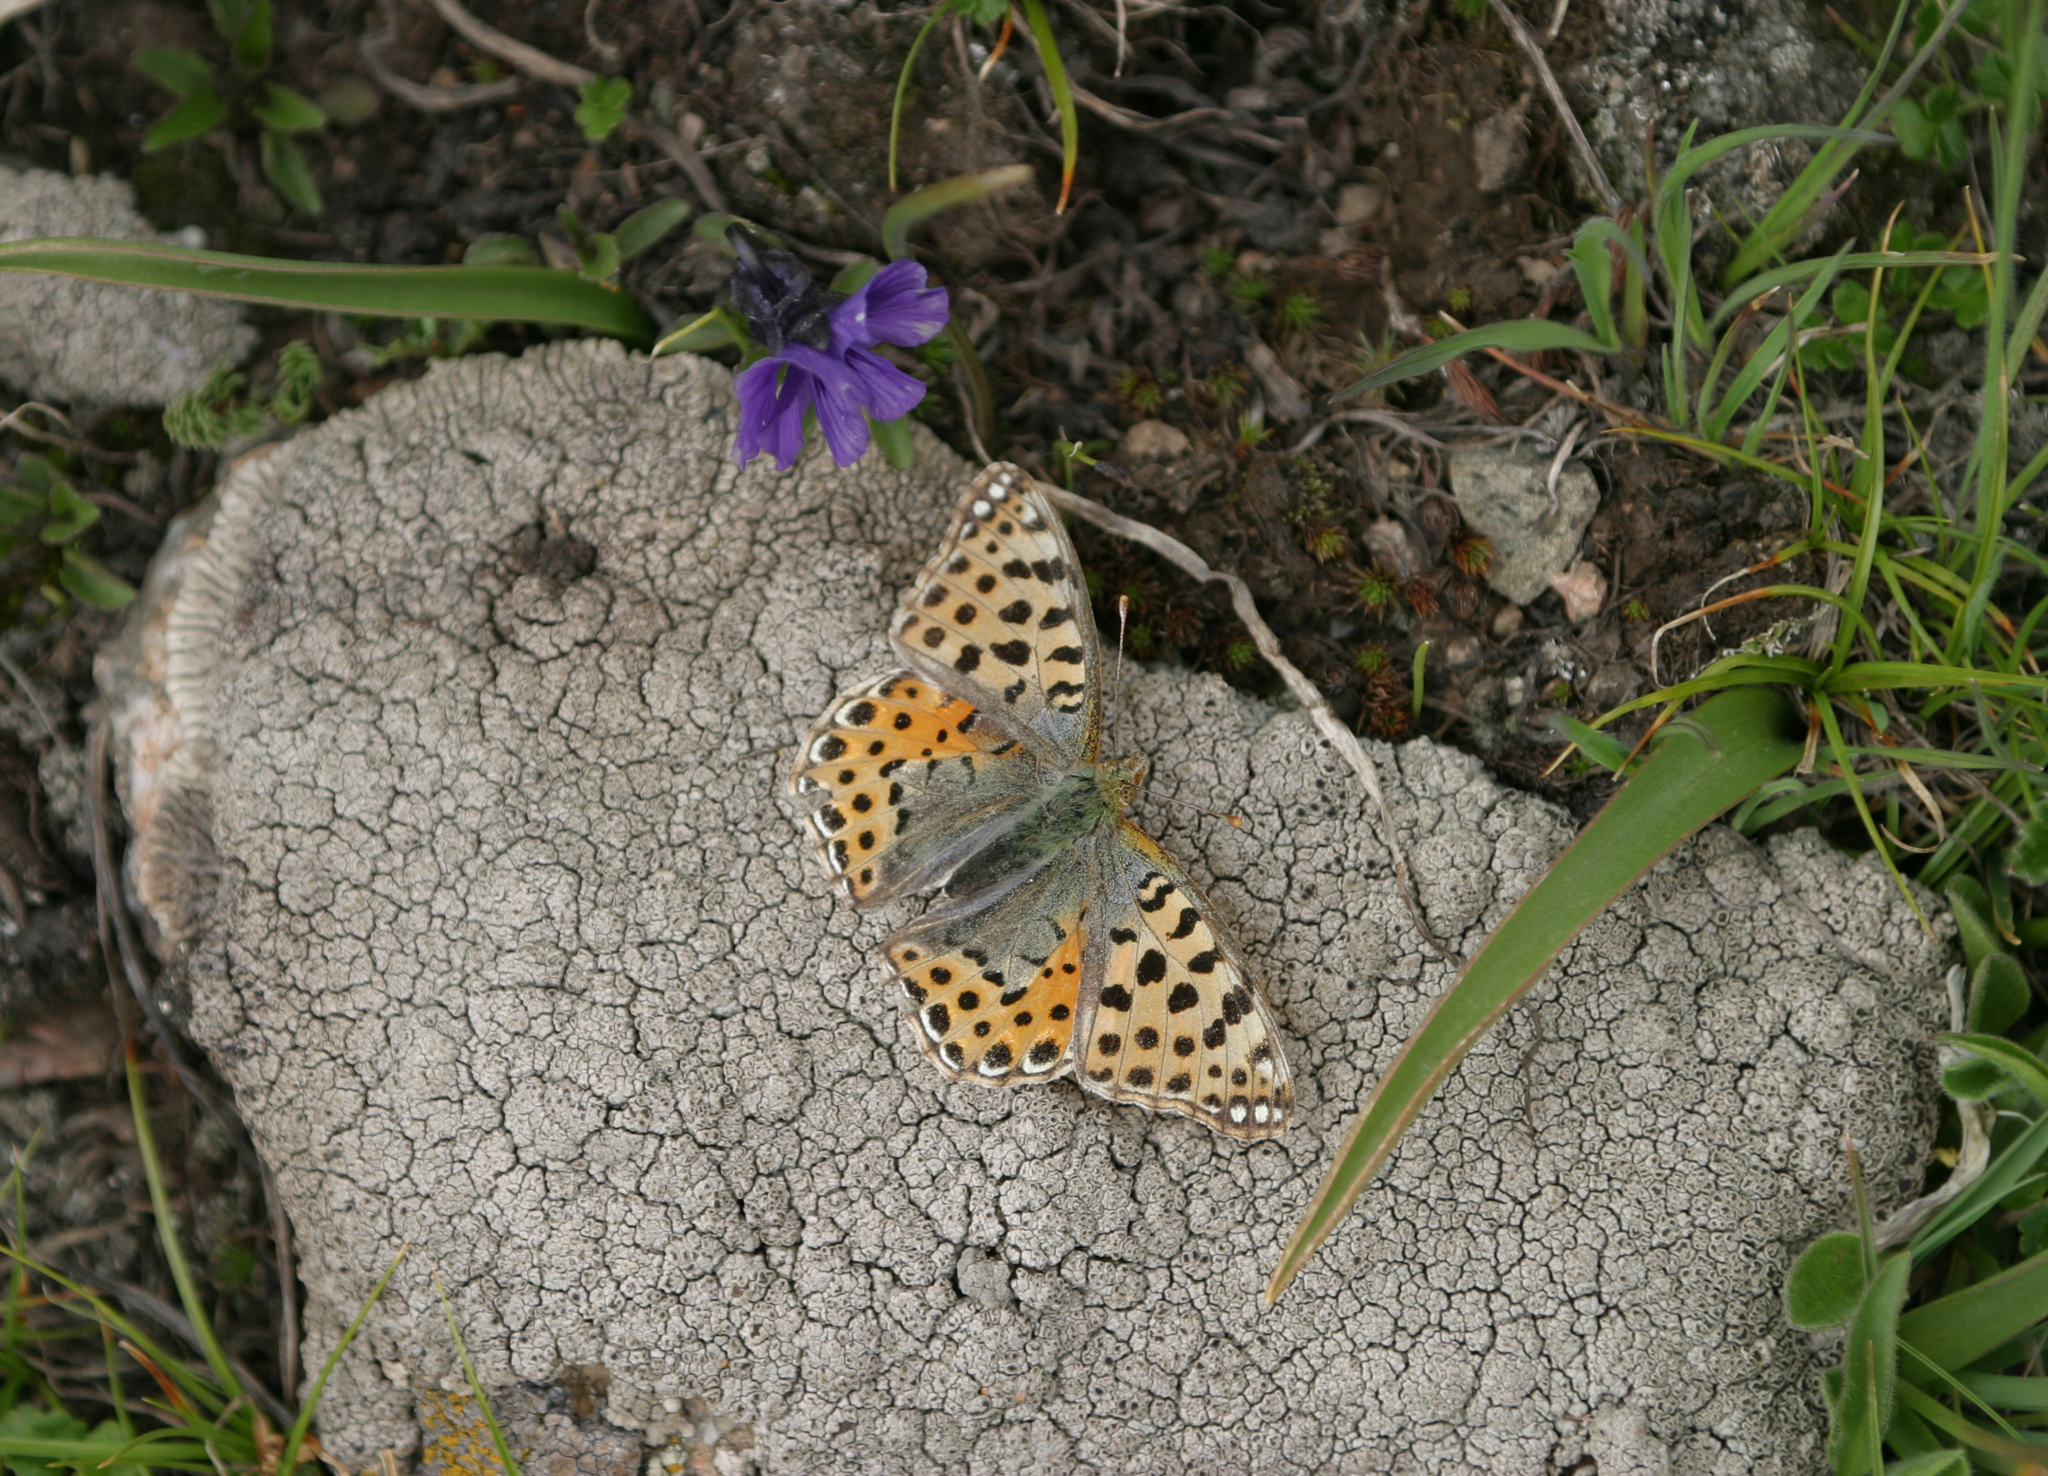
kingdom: Animalia
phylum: Arthropoda
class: Insecta
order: Lepidoptera
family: Nymphalidae
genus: Issoria
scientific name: Issoria lathonia
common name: Queen of spain fritillary
